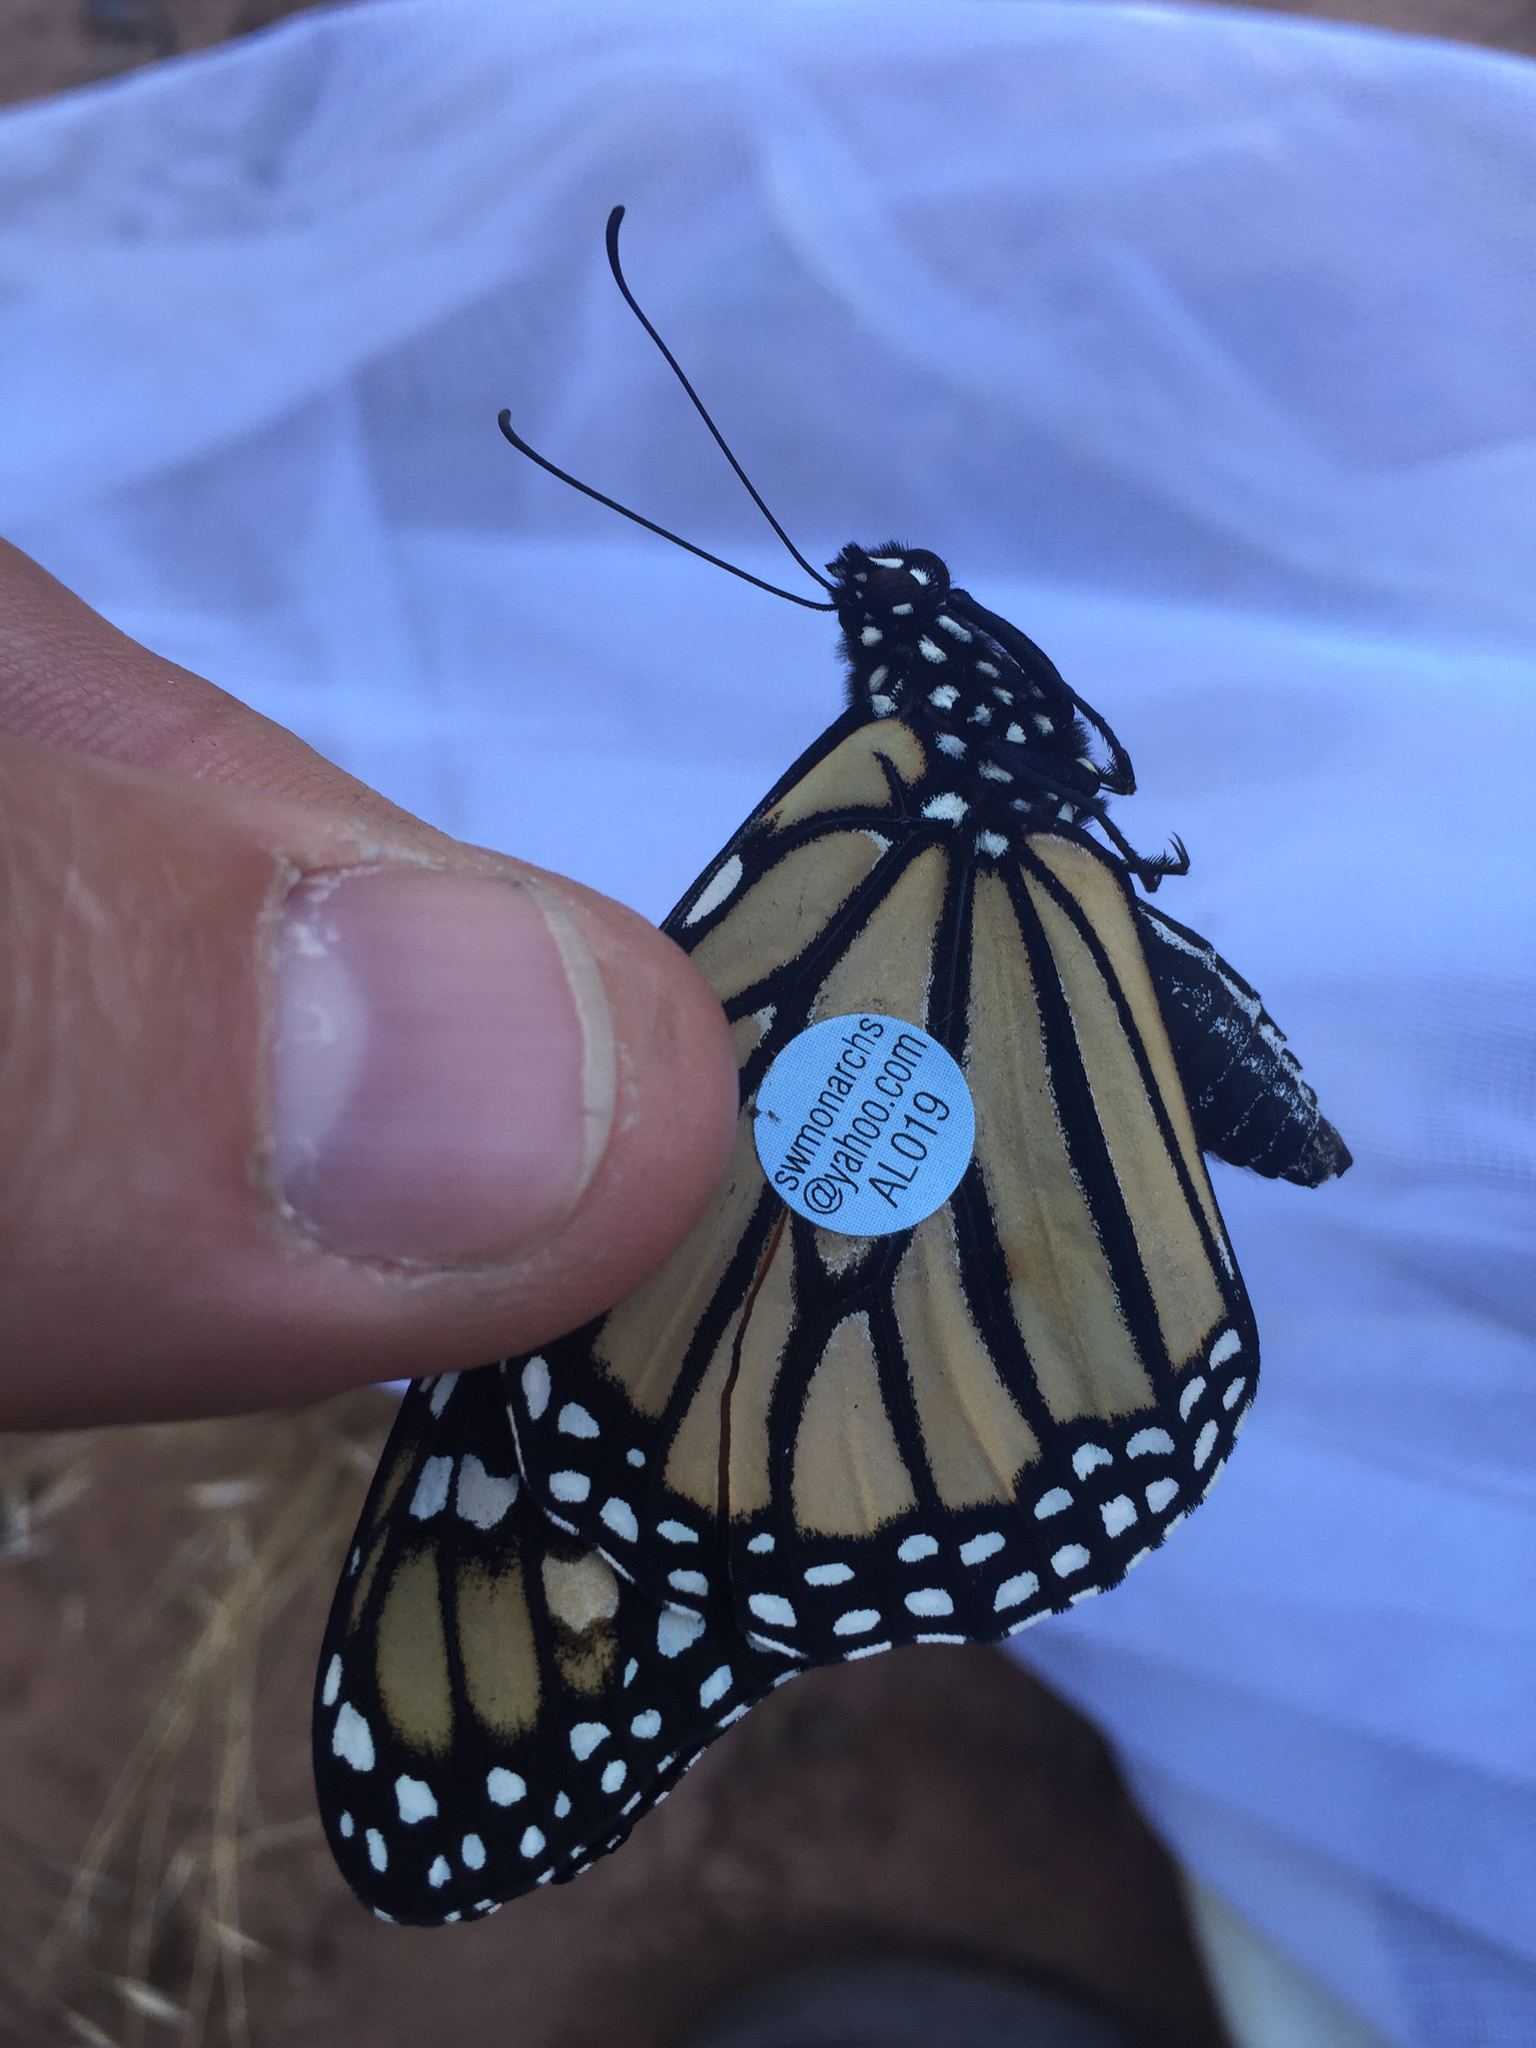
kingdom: Animalia
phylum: Arthropoda
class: Insecta
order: Lepidoptera
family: Nymphalidae
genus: Danaus
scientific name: Danaus plexippus
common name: Monarch
